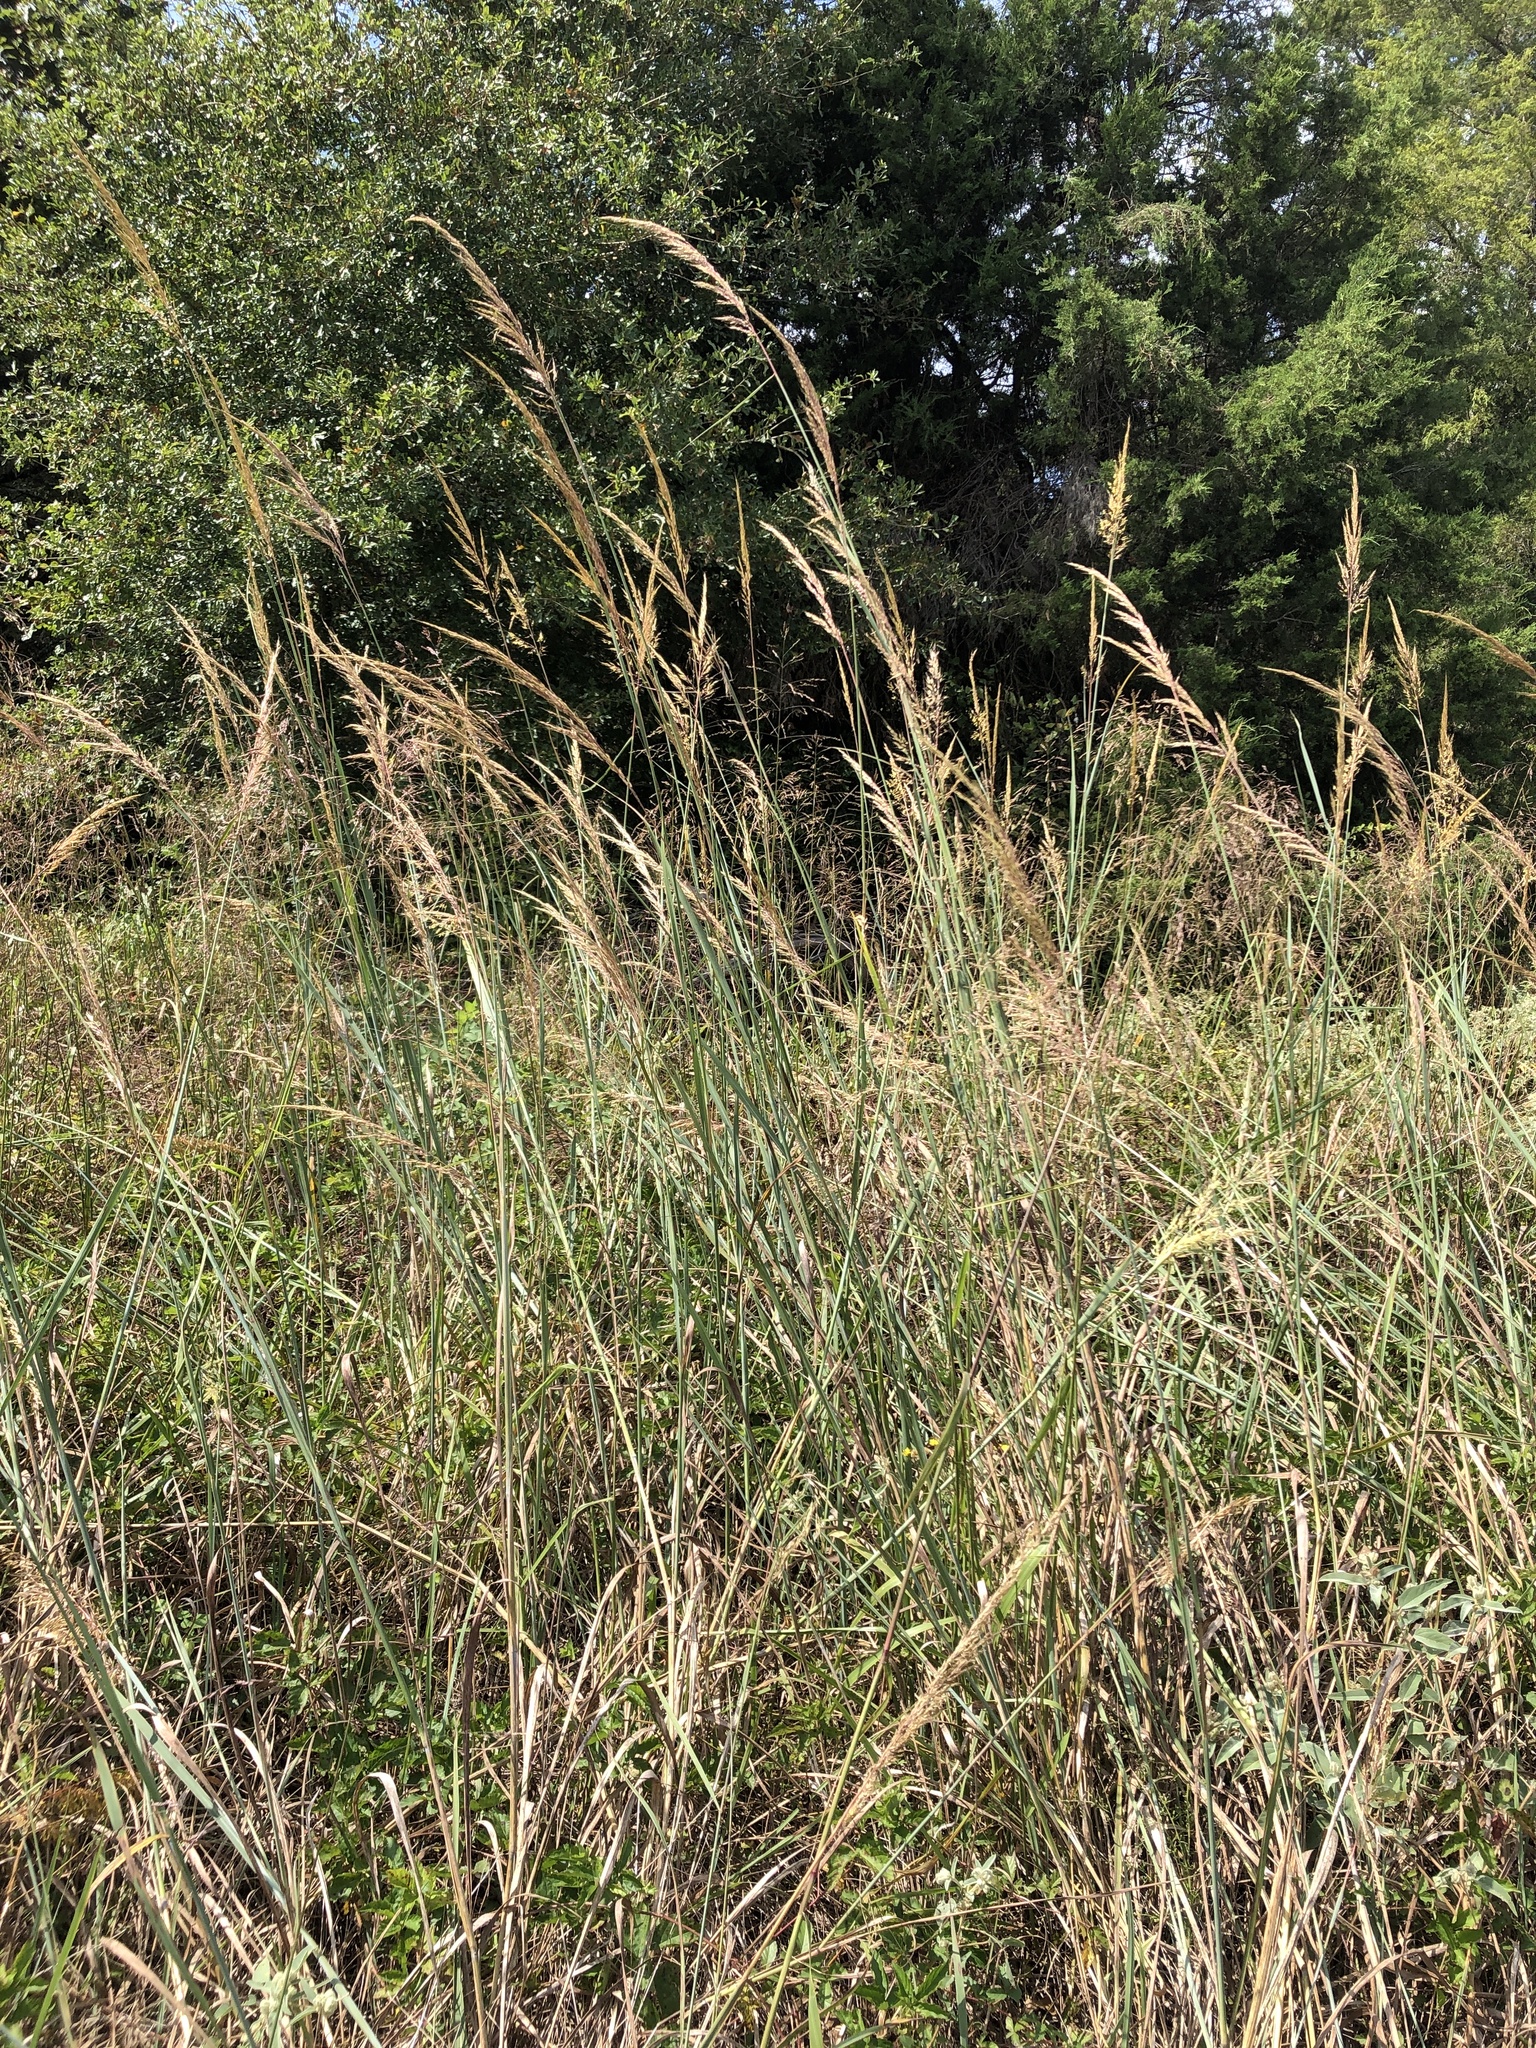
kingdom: Plantae
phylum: Tracheophyta
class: Liliopsida
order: Poales
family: Poaceae
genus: Sorghastrum
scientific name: Sorghastrum nutans
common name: Indian grass
